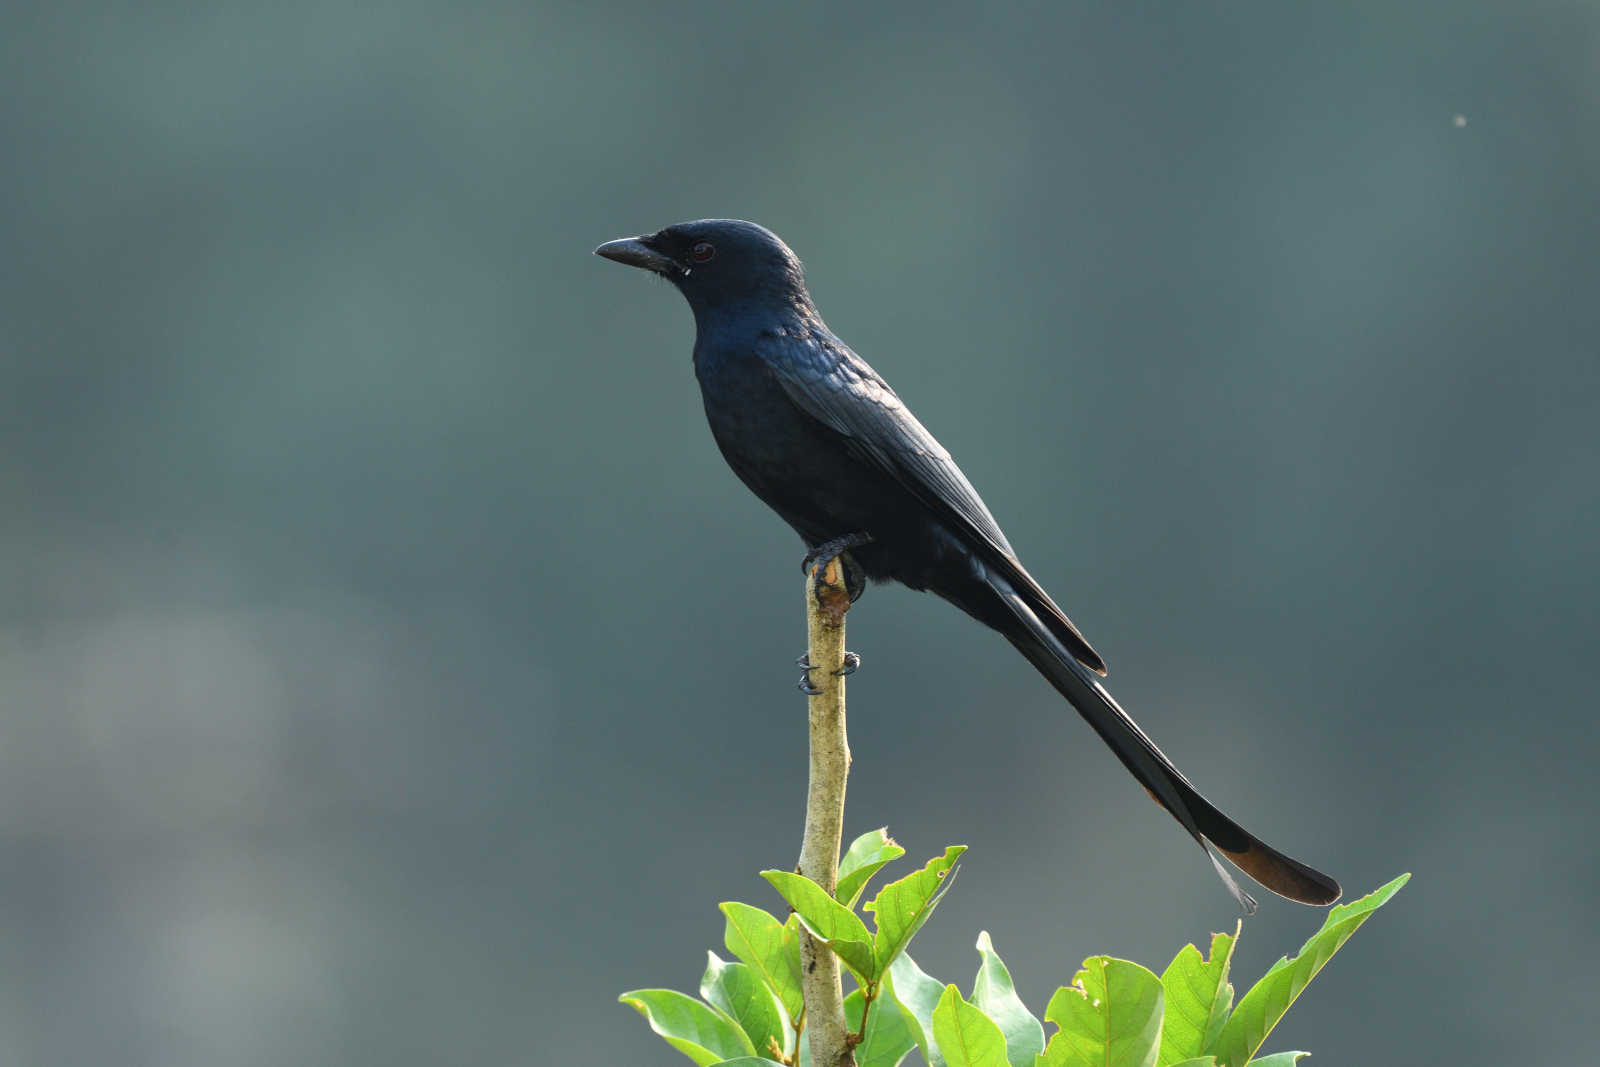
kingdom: Animalia
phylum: Chordata
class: Aves
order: Passeriformes
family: Dicruridae
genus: Dicrurus
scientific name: Dicrurus macrocercus
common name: Black drongo
